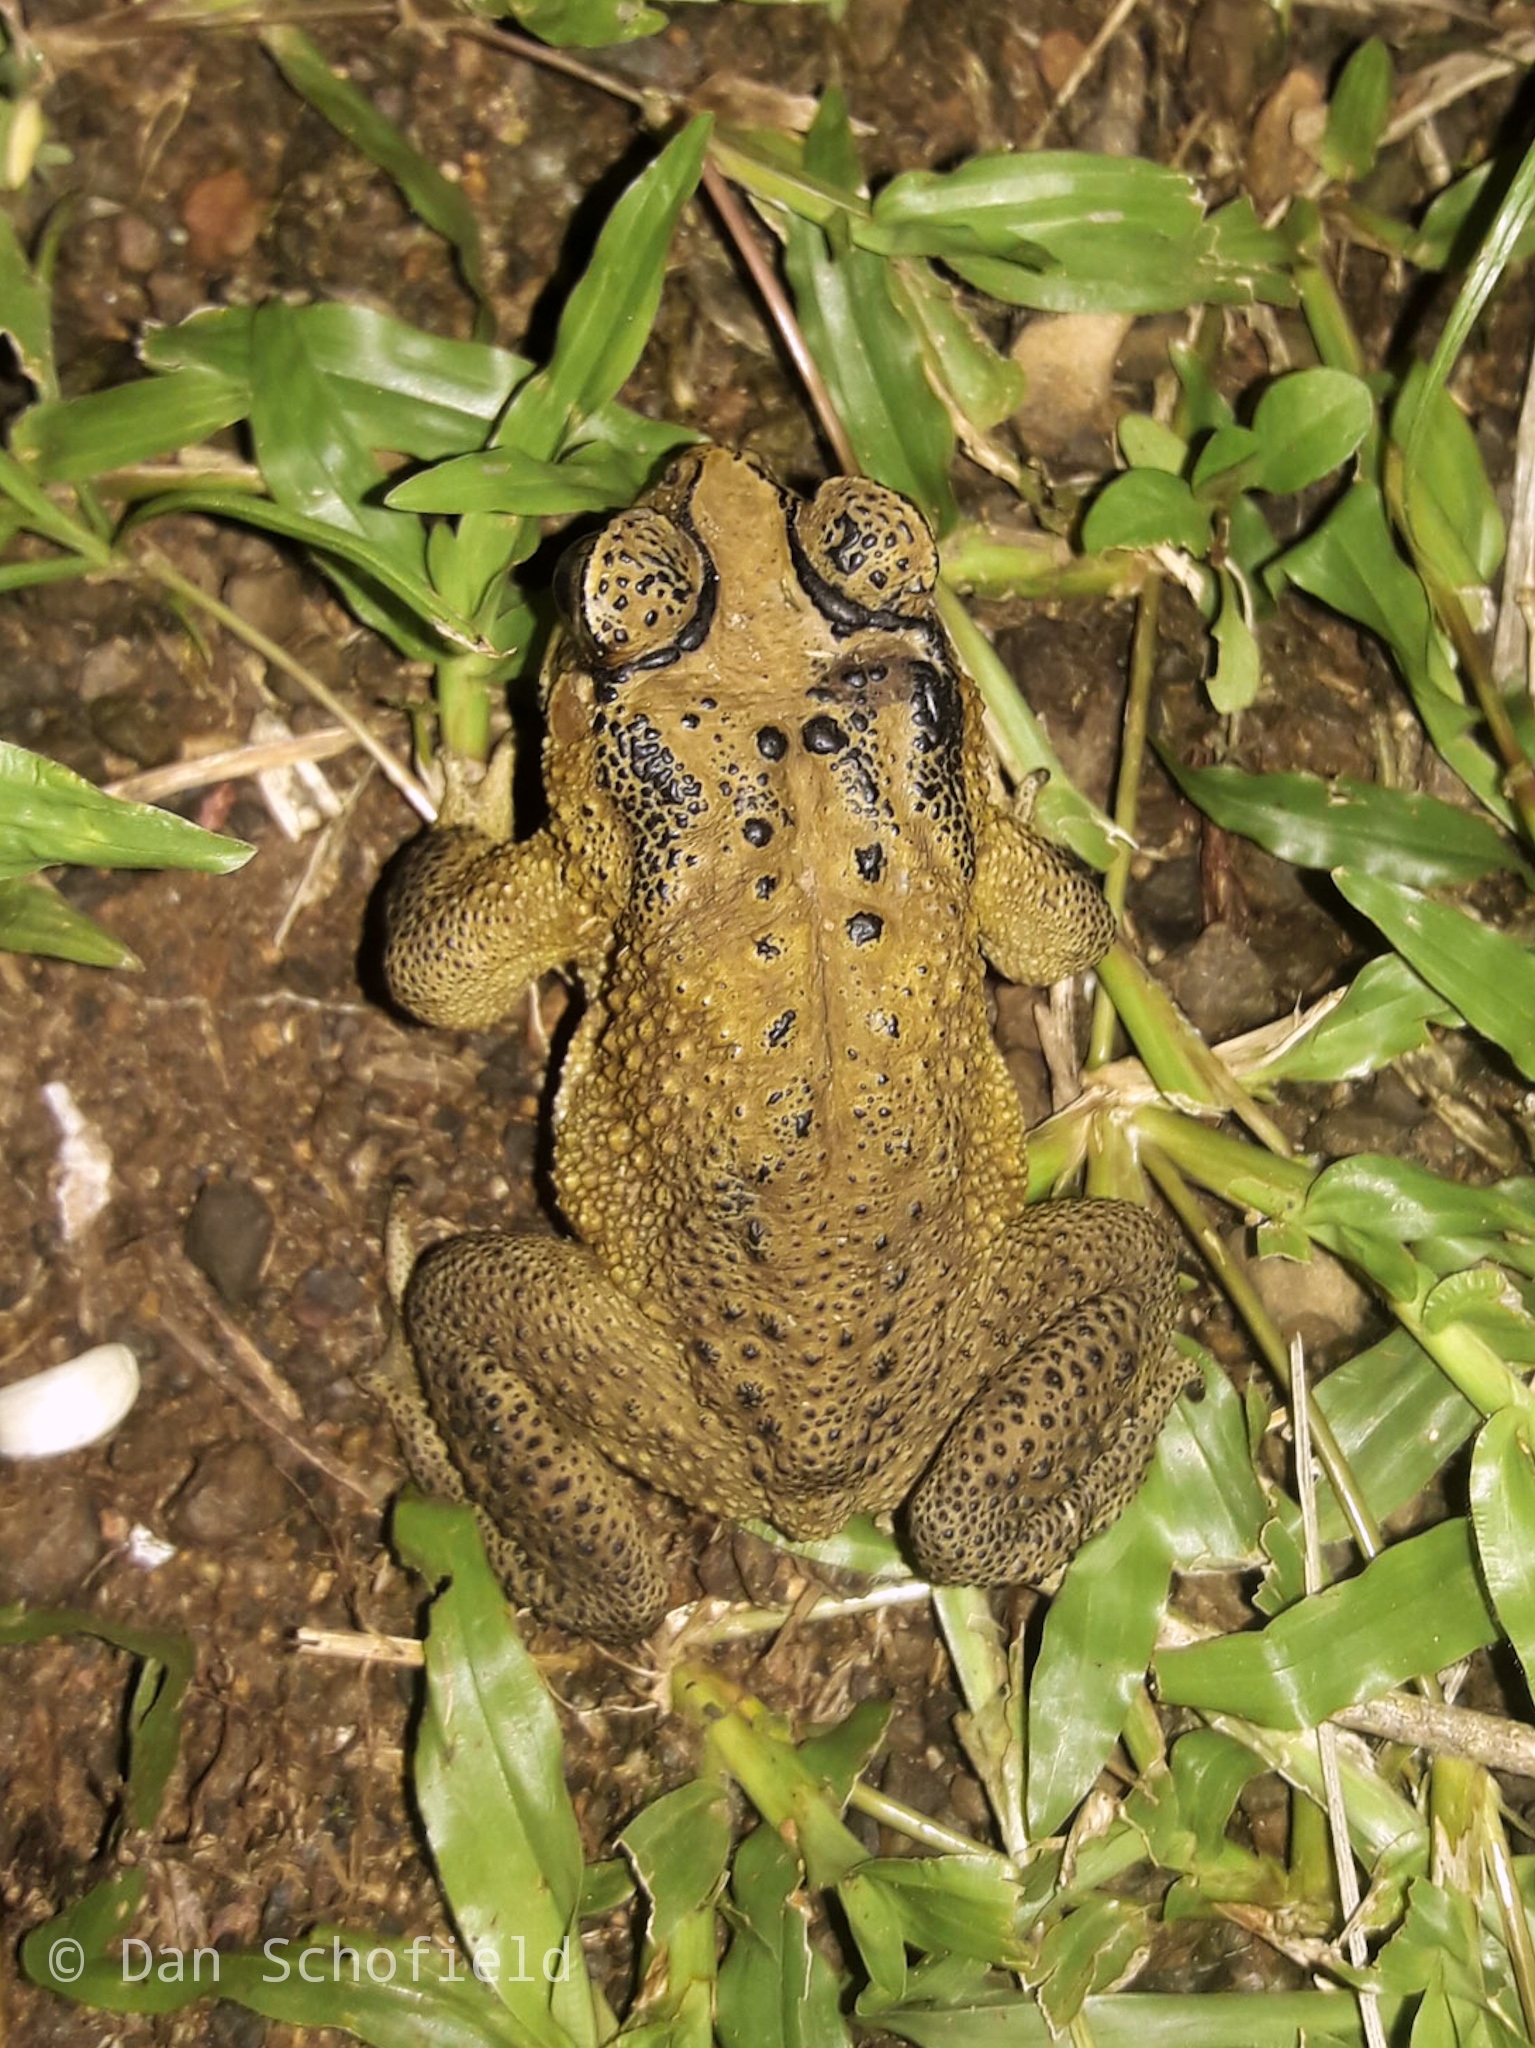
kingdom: Animalia
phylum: Chordata
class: Amphibia
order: Anura
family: Bufonidae
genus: Duttaphrynus
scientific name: Duttaphrynus melanostictus
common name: Common sunda toad
